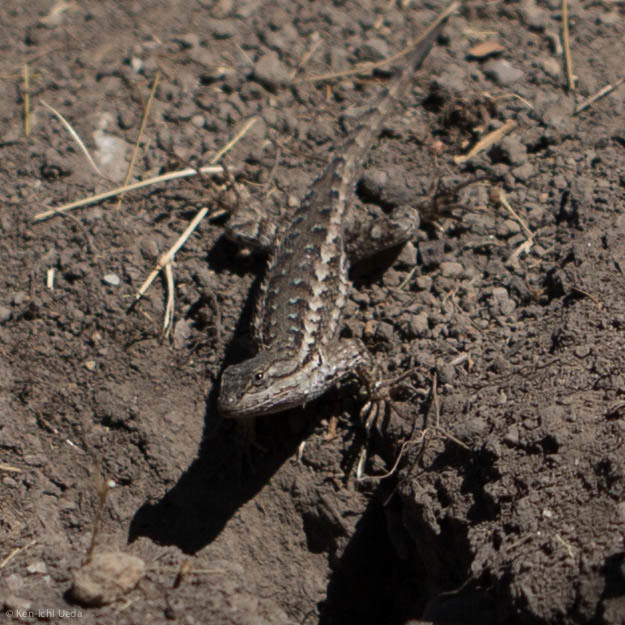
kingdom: Animalia
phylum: Chordata
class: Squamata
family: Phrynosomatidae
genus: Sceloporus
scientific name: Sceloporus occidentalis
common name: Western fence lizard
